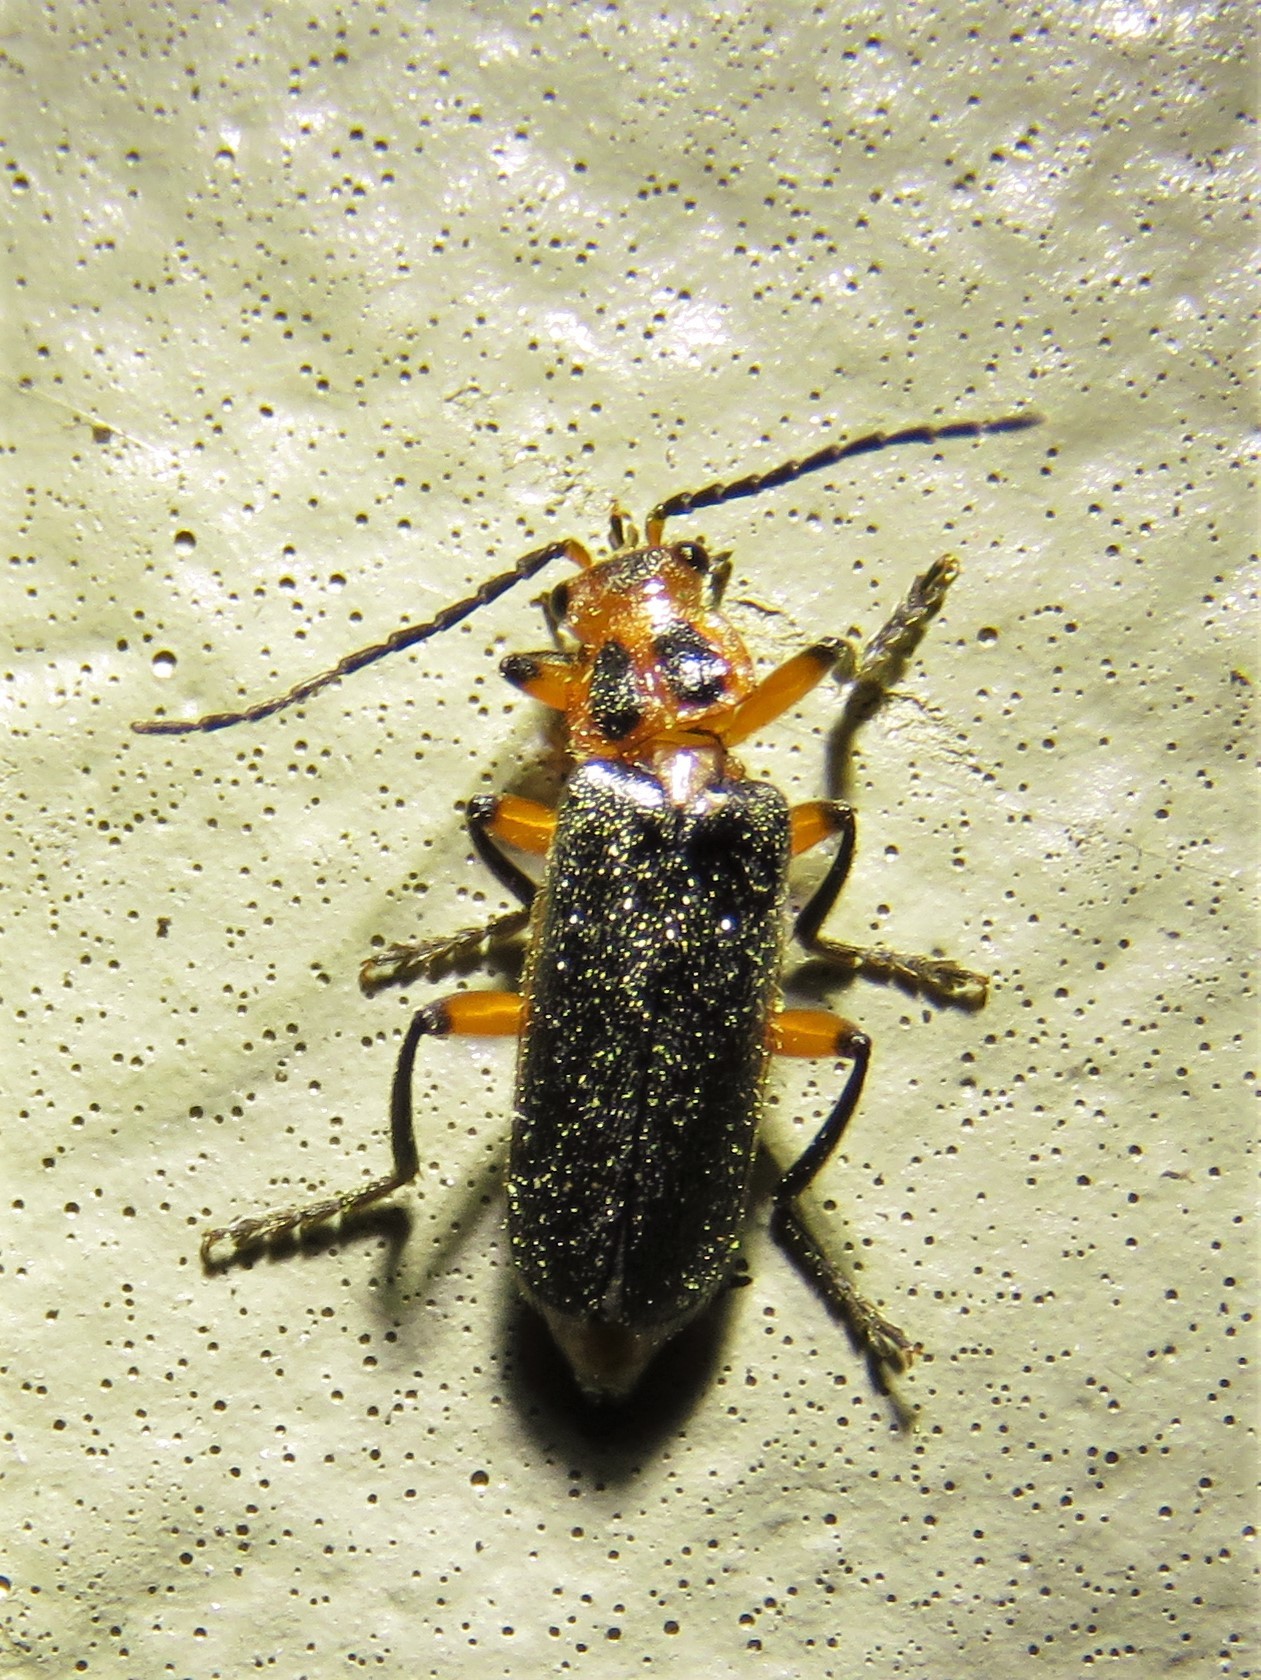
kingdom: Animalia
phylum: Arthropoda
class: Insecta
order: Coleoptera
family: Cantharidae
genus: Atalantycha
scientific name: Atalantycha bilineata
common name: Two-lined leatherwing
